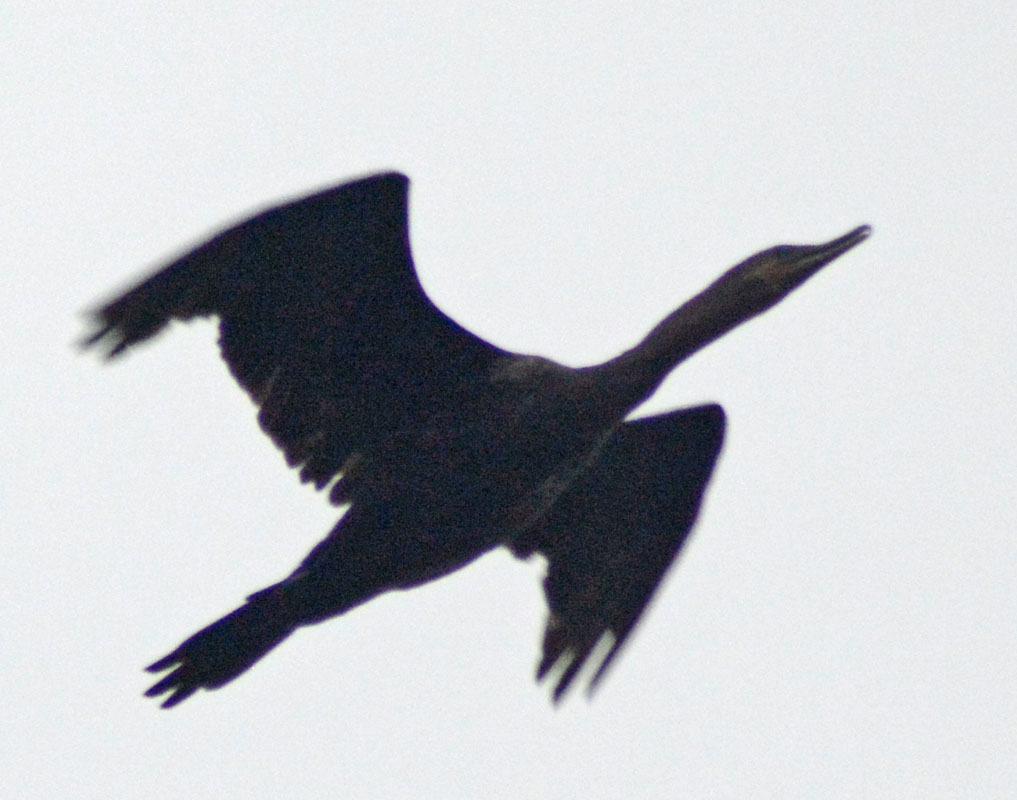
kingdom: Animalia
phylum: Chordata
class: Aves
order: Suliformes
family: Phalacrocoracidae
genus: Phalacrocorax
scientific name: Phalacrocorax brasilianus
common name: Neotropic cormorant
